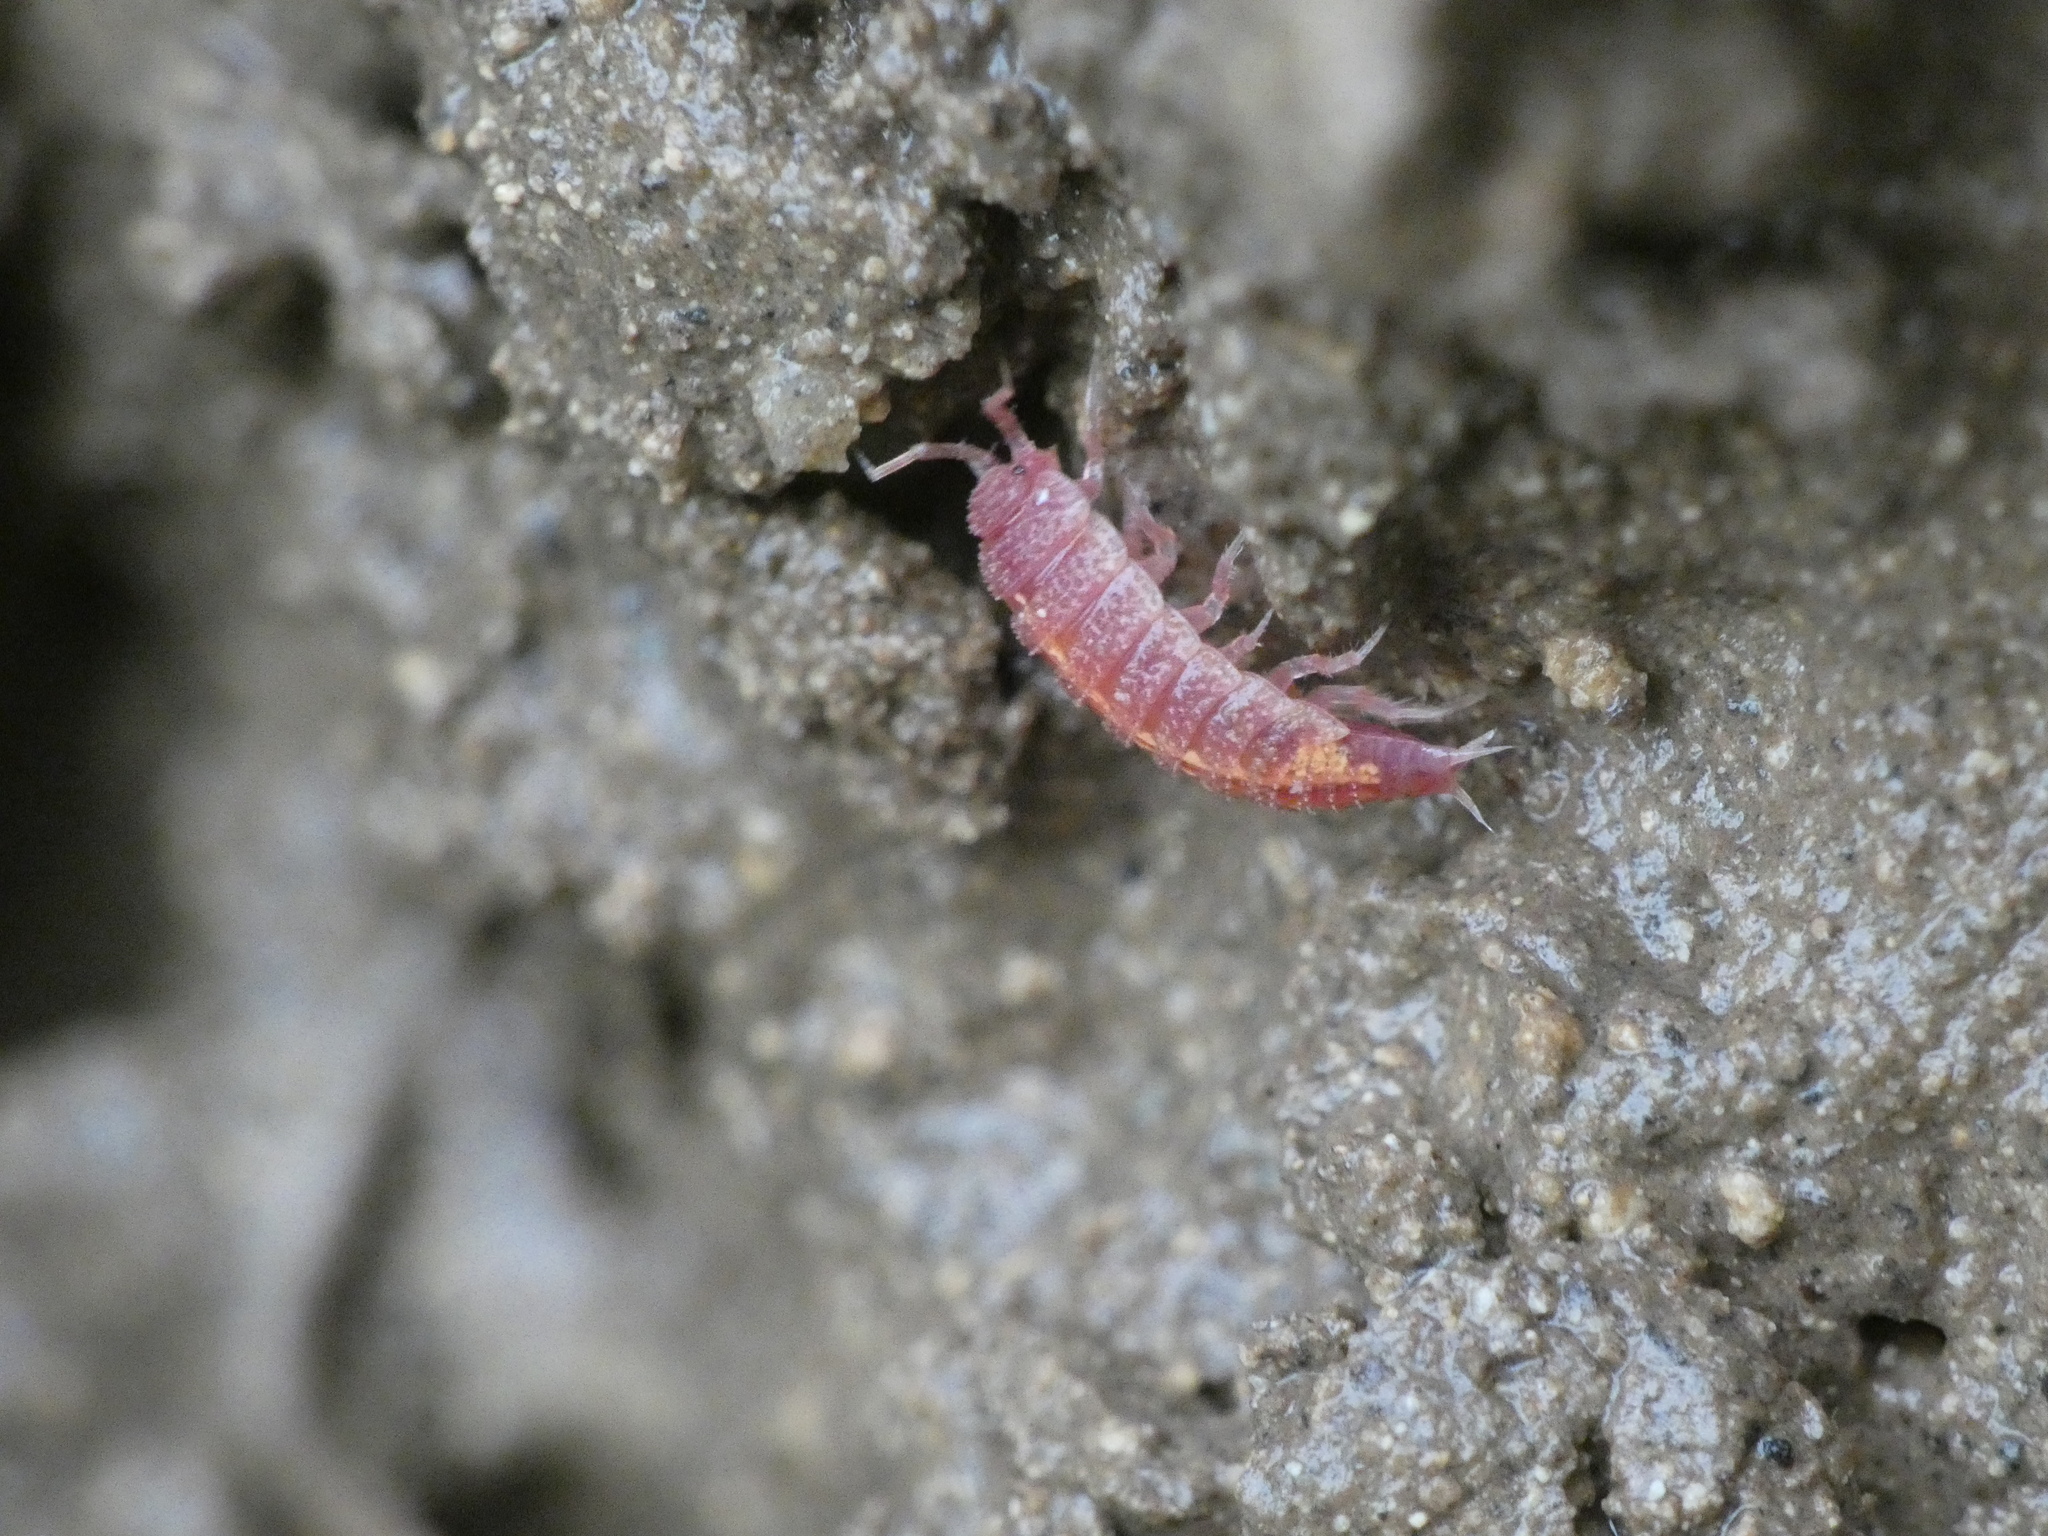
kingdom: Animalia
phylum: Arthropoda
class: Malacostraca
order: Isopoda
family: Trichoniscidae
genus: Androniscus
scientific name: Androniscus dentiger
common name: Rosy woodlouse
